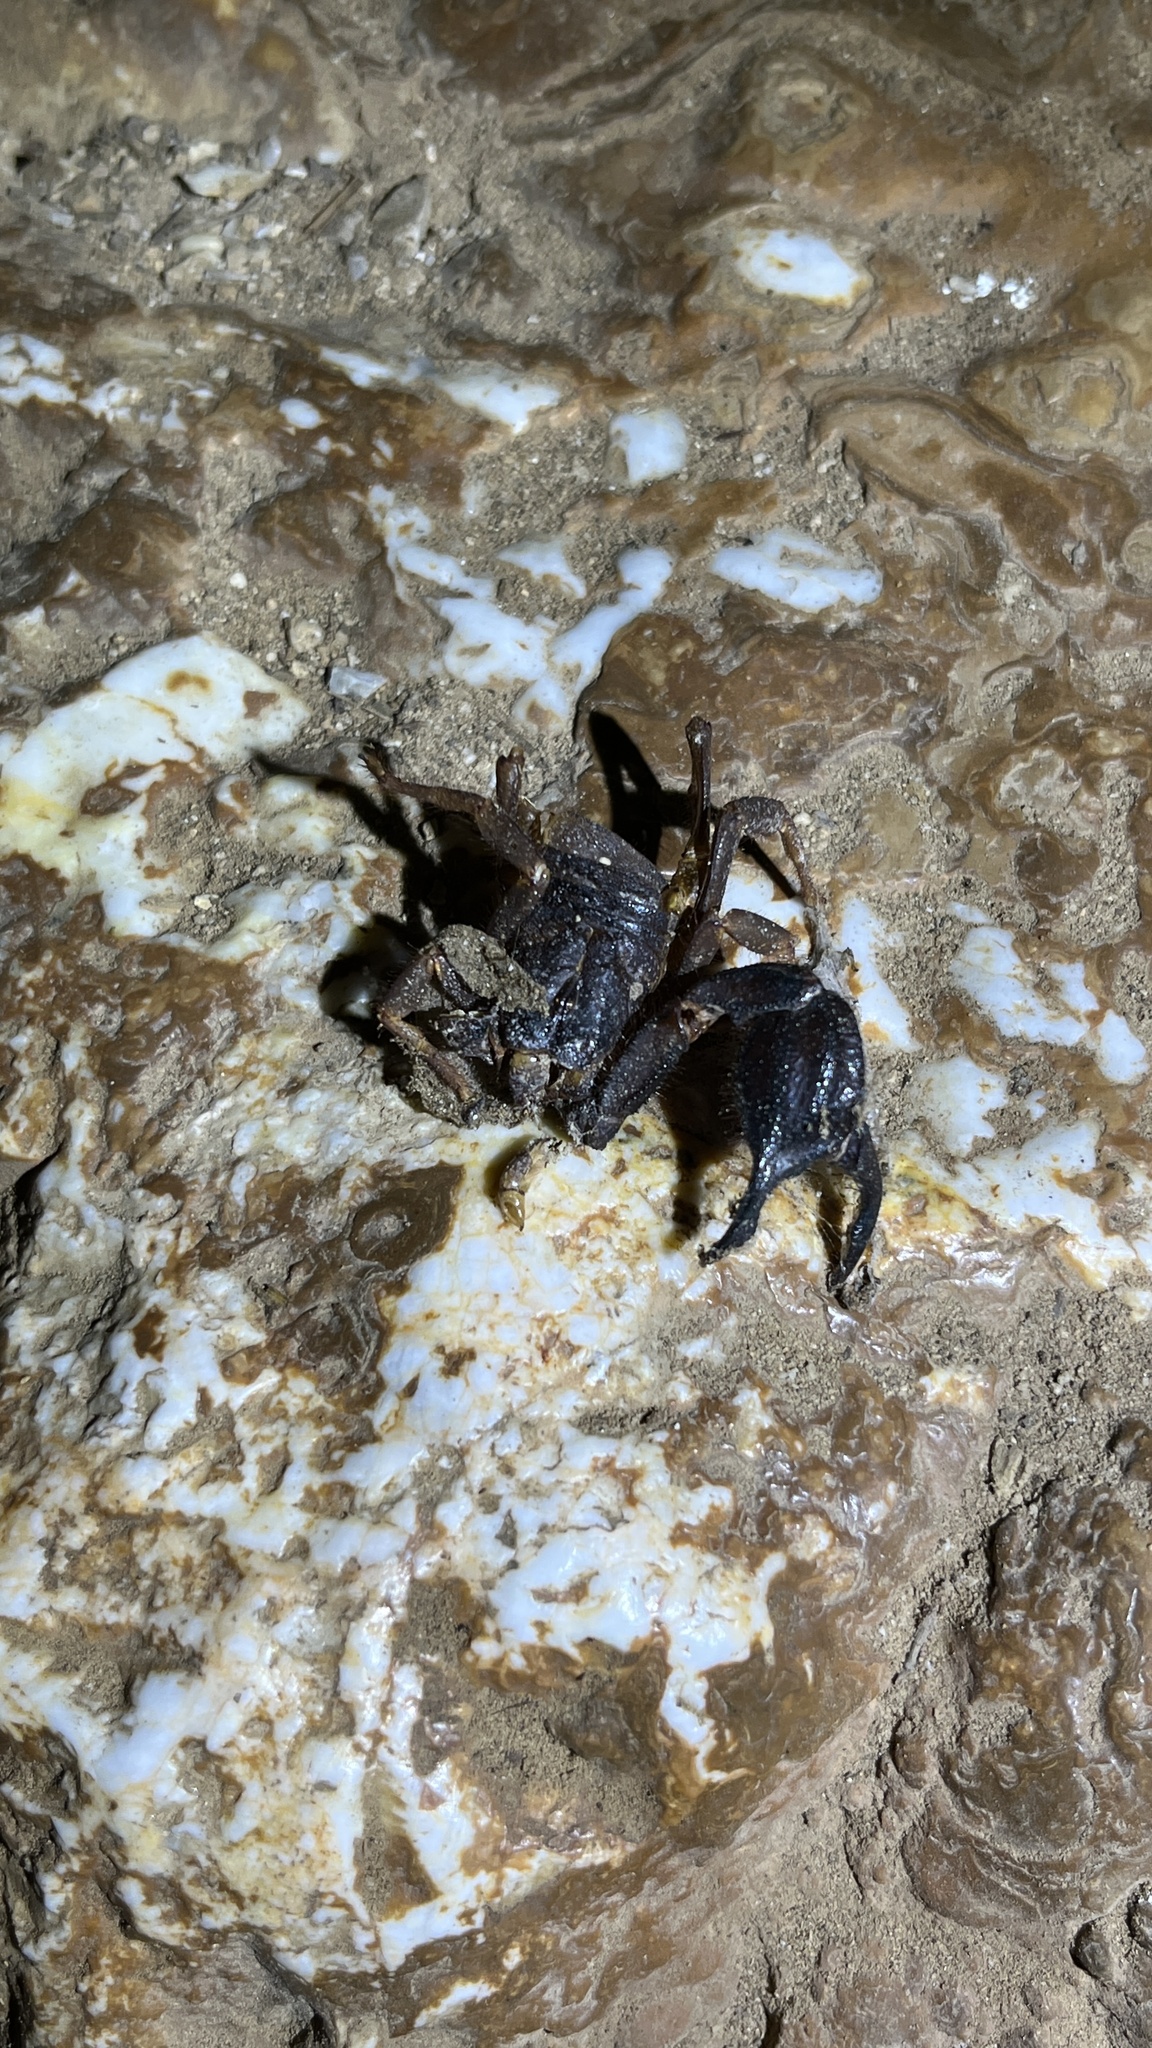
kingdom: Animalia
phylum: Arthropoda
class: Arachnida
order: Scorpiones
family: Iuridae
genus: Anatoliurus
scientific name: Anatoliurus kraepelini
